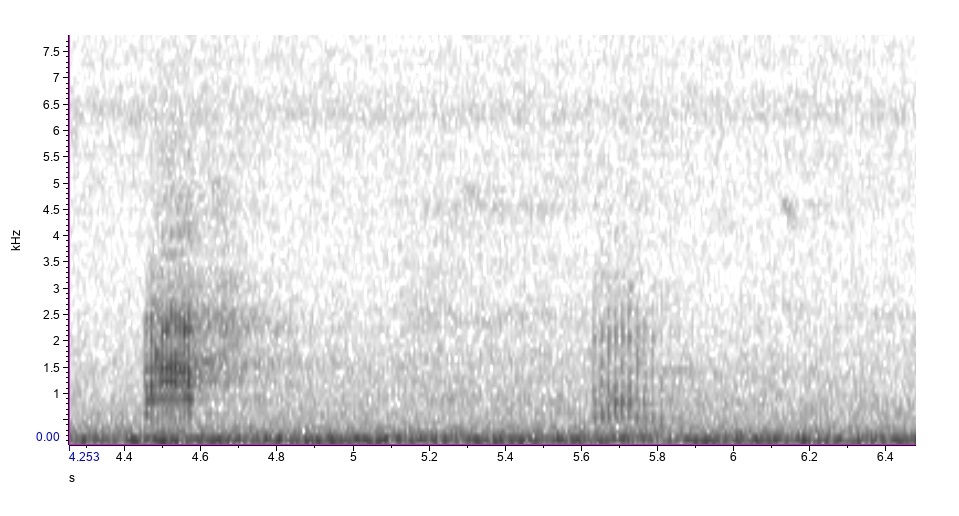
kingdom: Animalia
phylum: Chordata
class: Aves
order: Pelecaniformes
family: Ardeidae
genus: Ardea
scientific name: Ardea herodias
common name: Great blue heron
